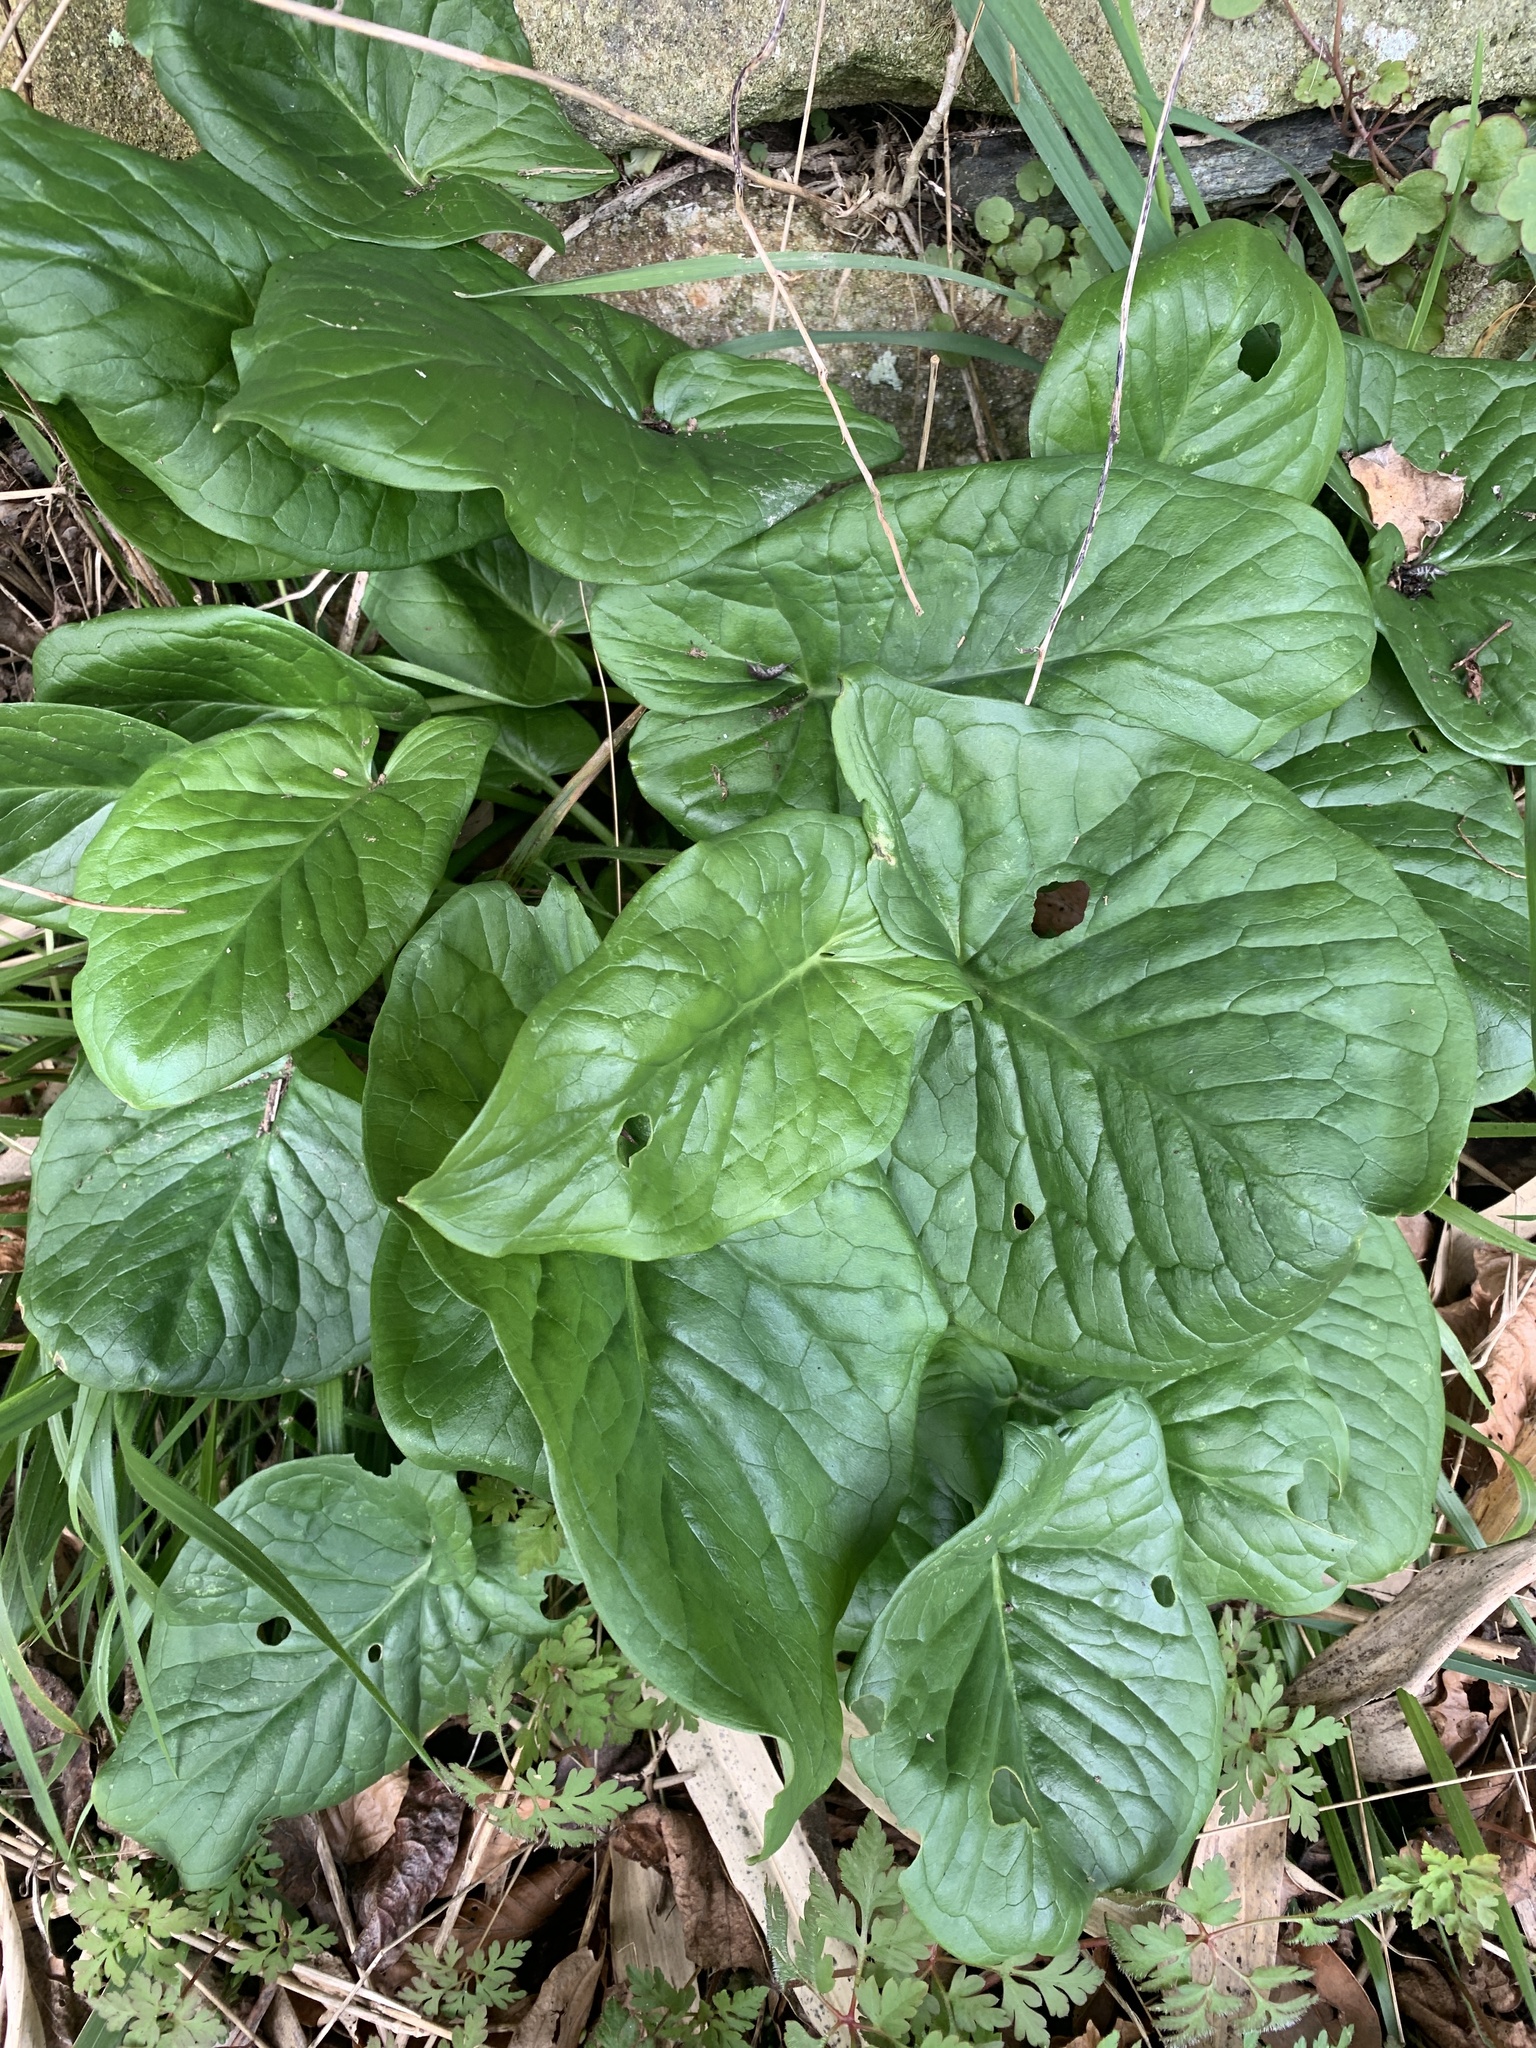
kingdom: Plantae
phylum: Tracheophyta
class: Liliopsida
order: Alismatales
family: Araceae
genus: Arum
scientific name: Arum maculatum
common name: Lords-and-ladies
